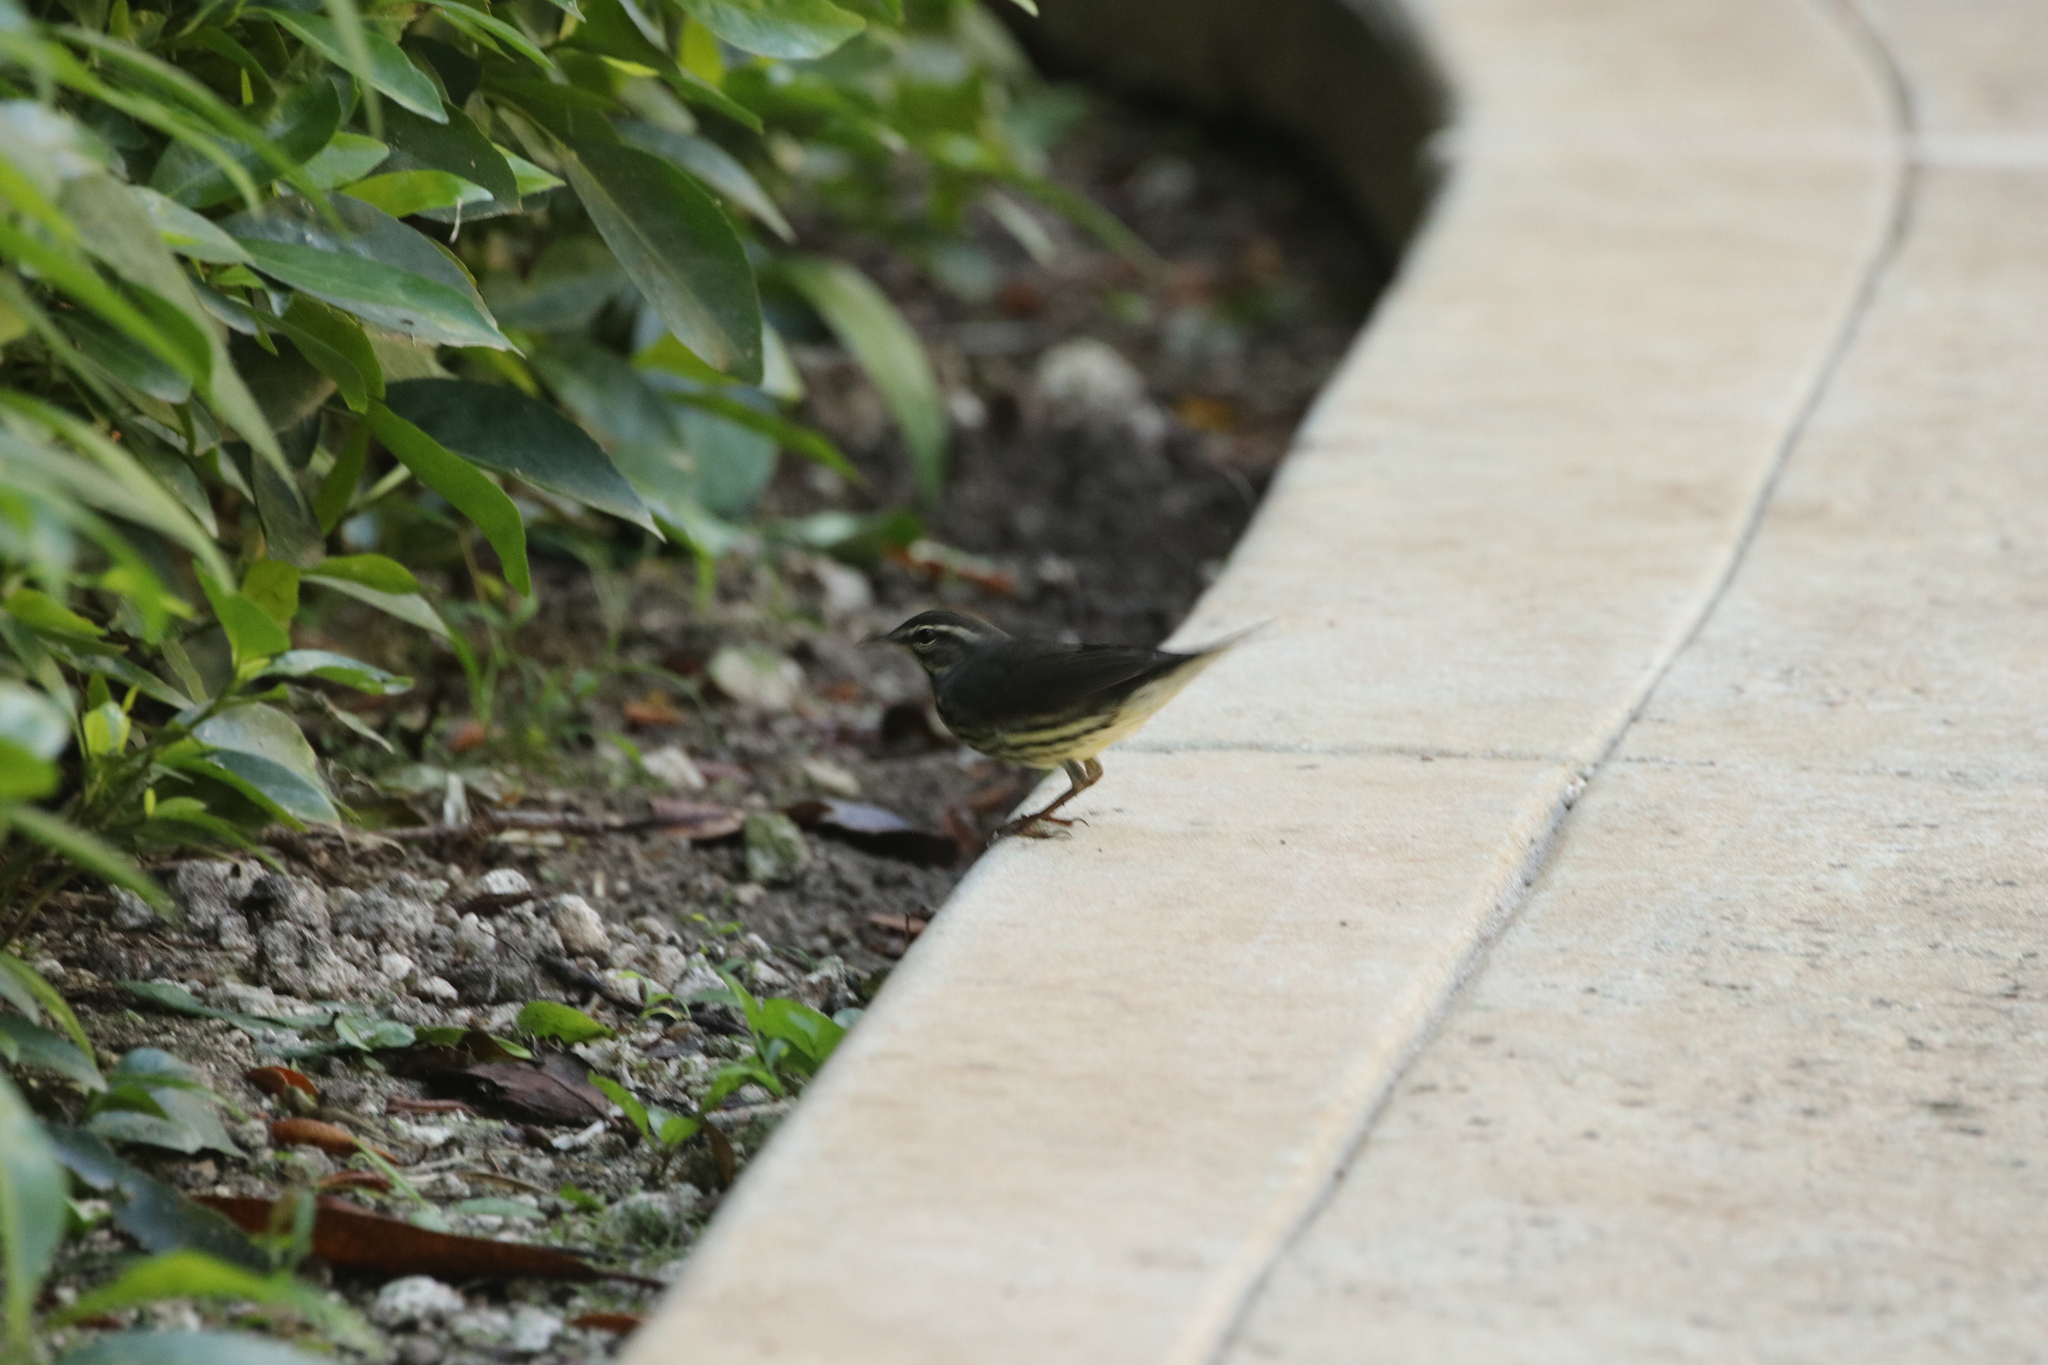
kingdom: Animalia
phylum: Chordata
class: Aves
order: Passeriformes
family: Parulidae
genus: Parkesia
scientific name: Parkesia noveboracensis
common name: Northern waterthrush
